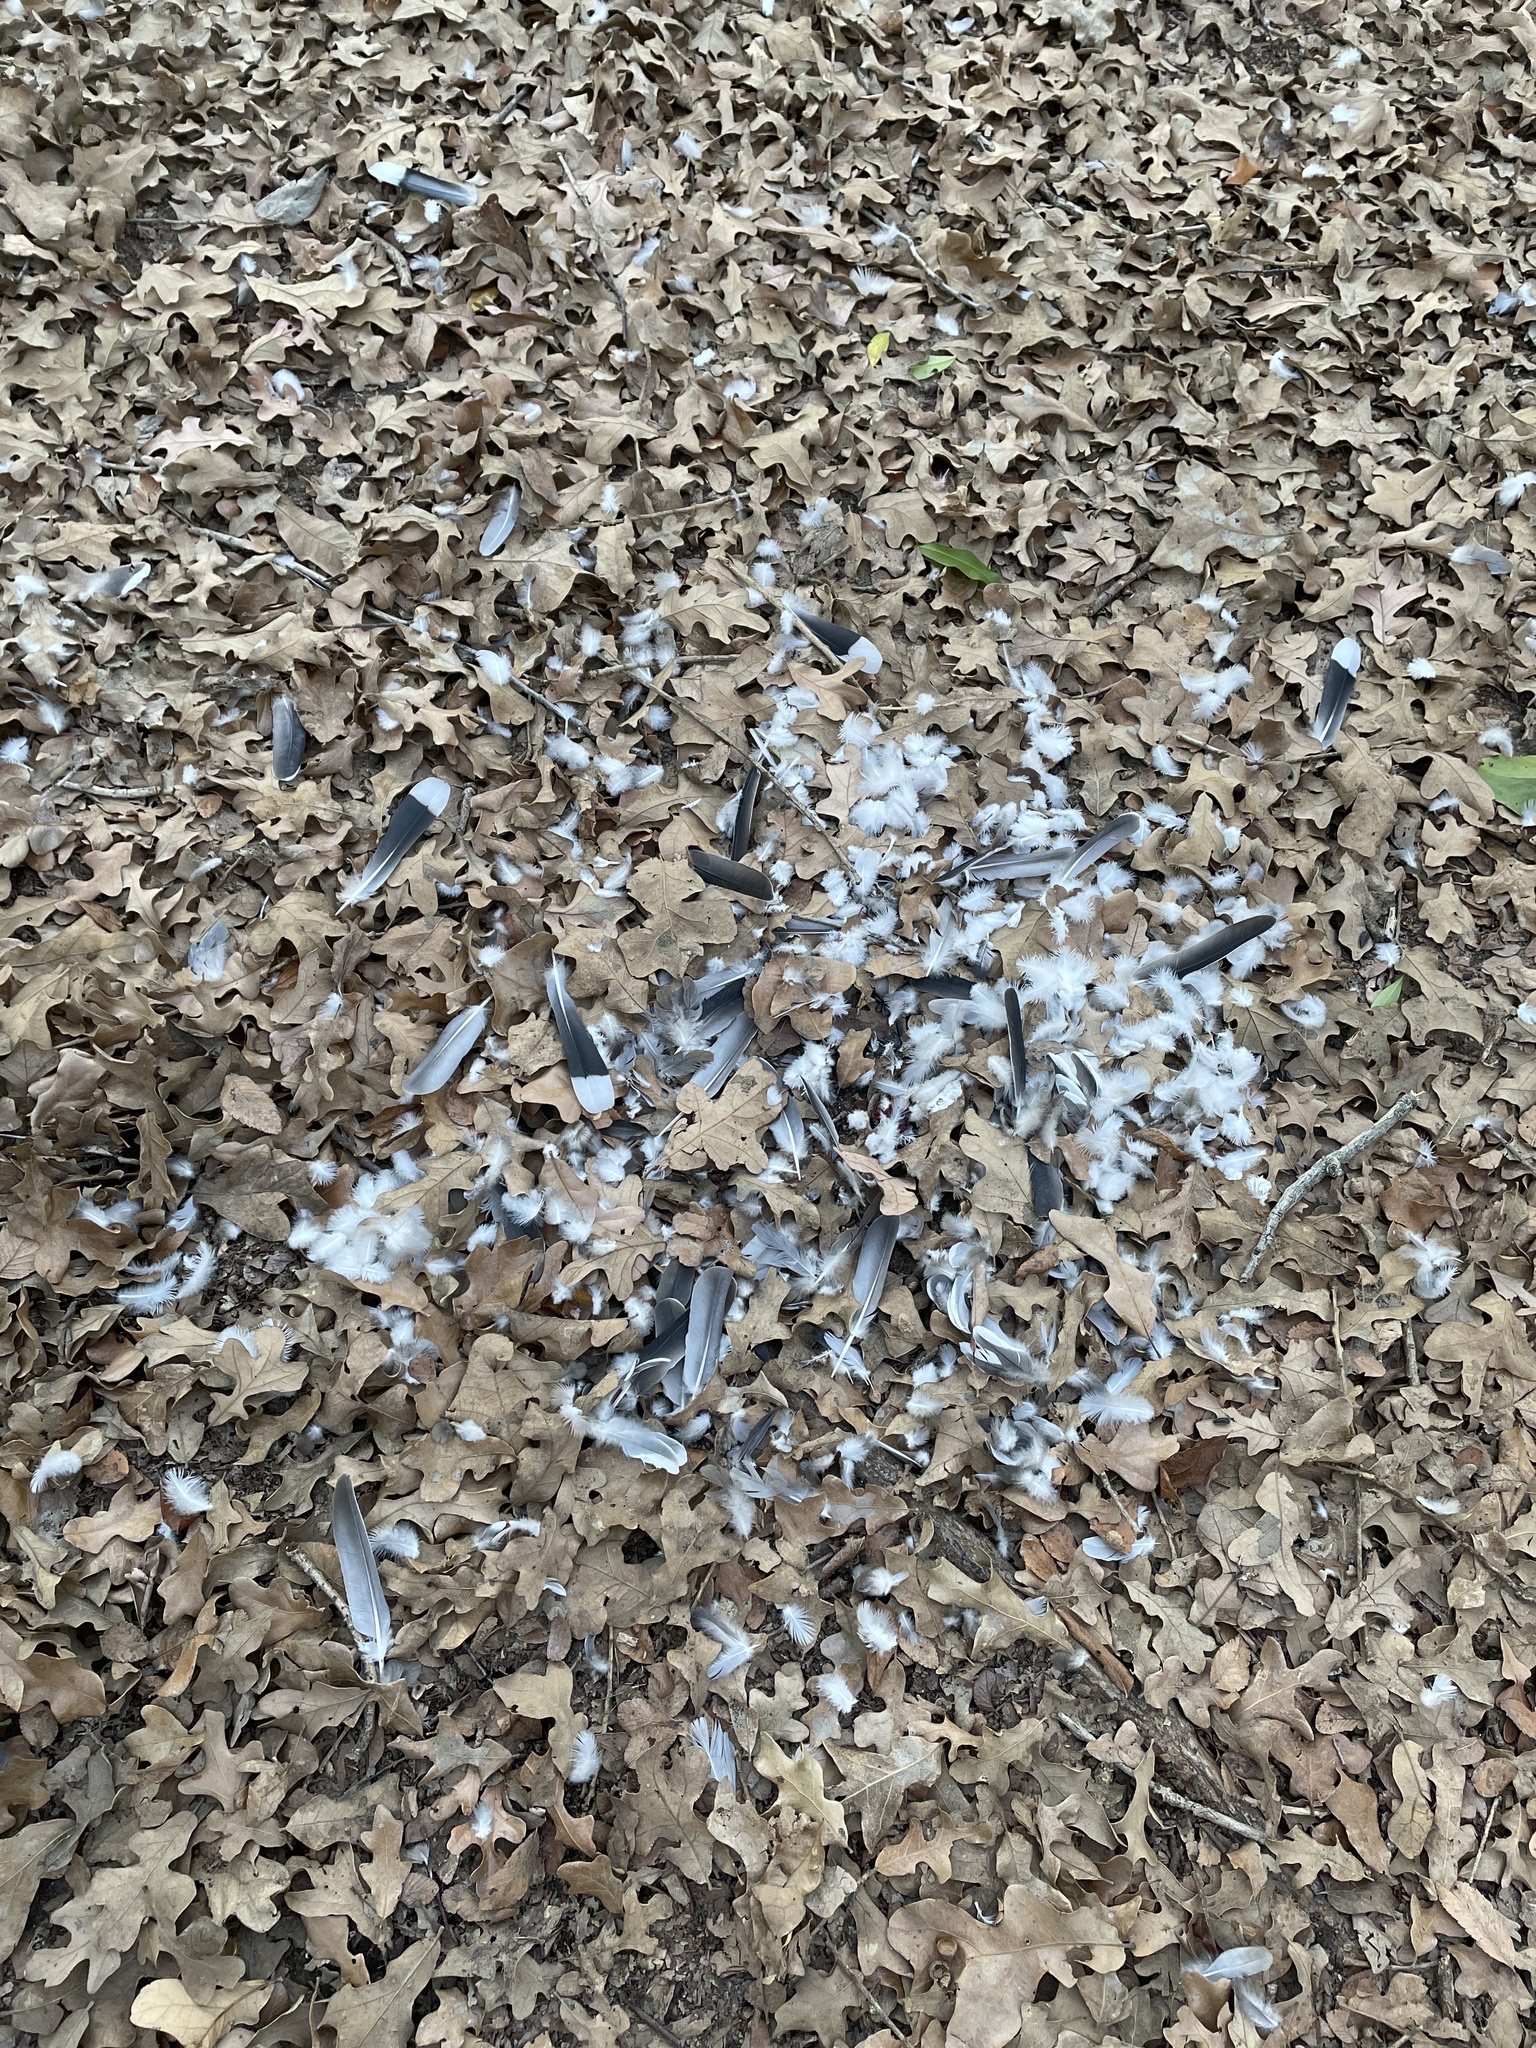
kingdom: Animalia
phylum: Chordata
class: Aves
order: Columbiformes
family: Columbidae
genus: Zenaida
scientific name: Zenaida asiatica
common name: White-winged dove
